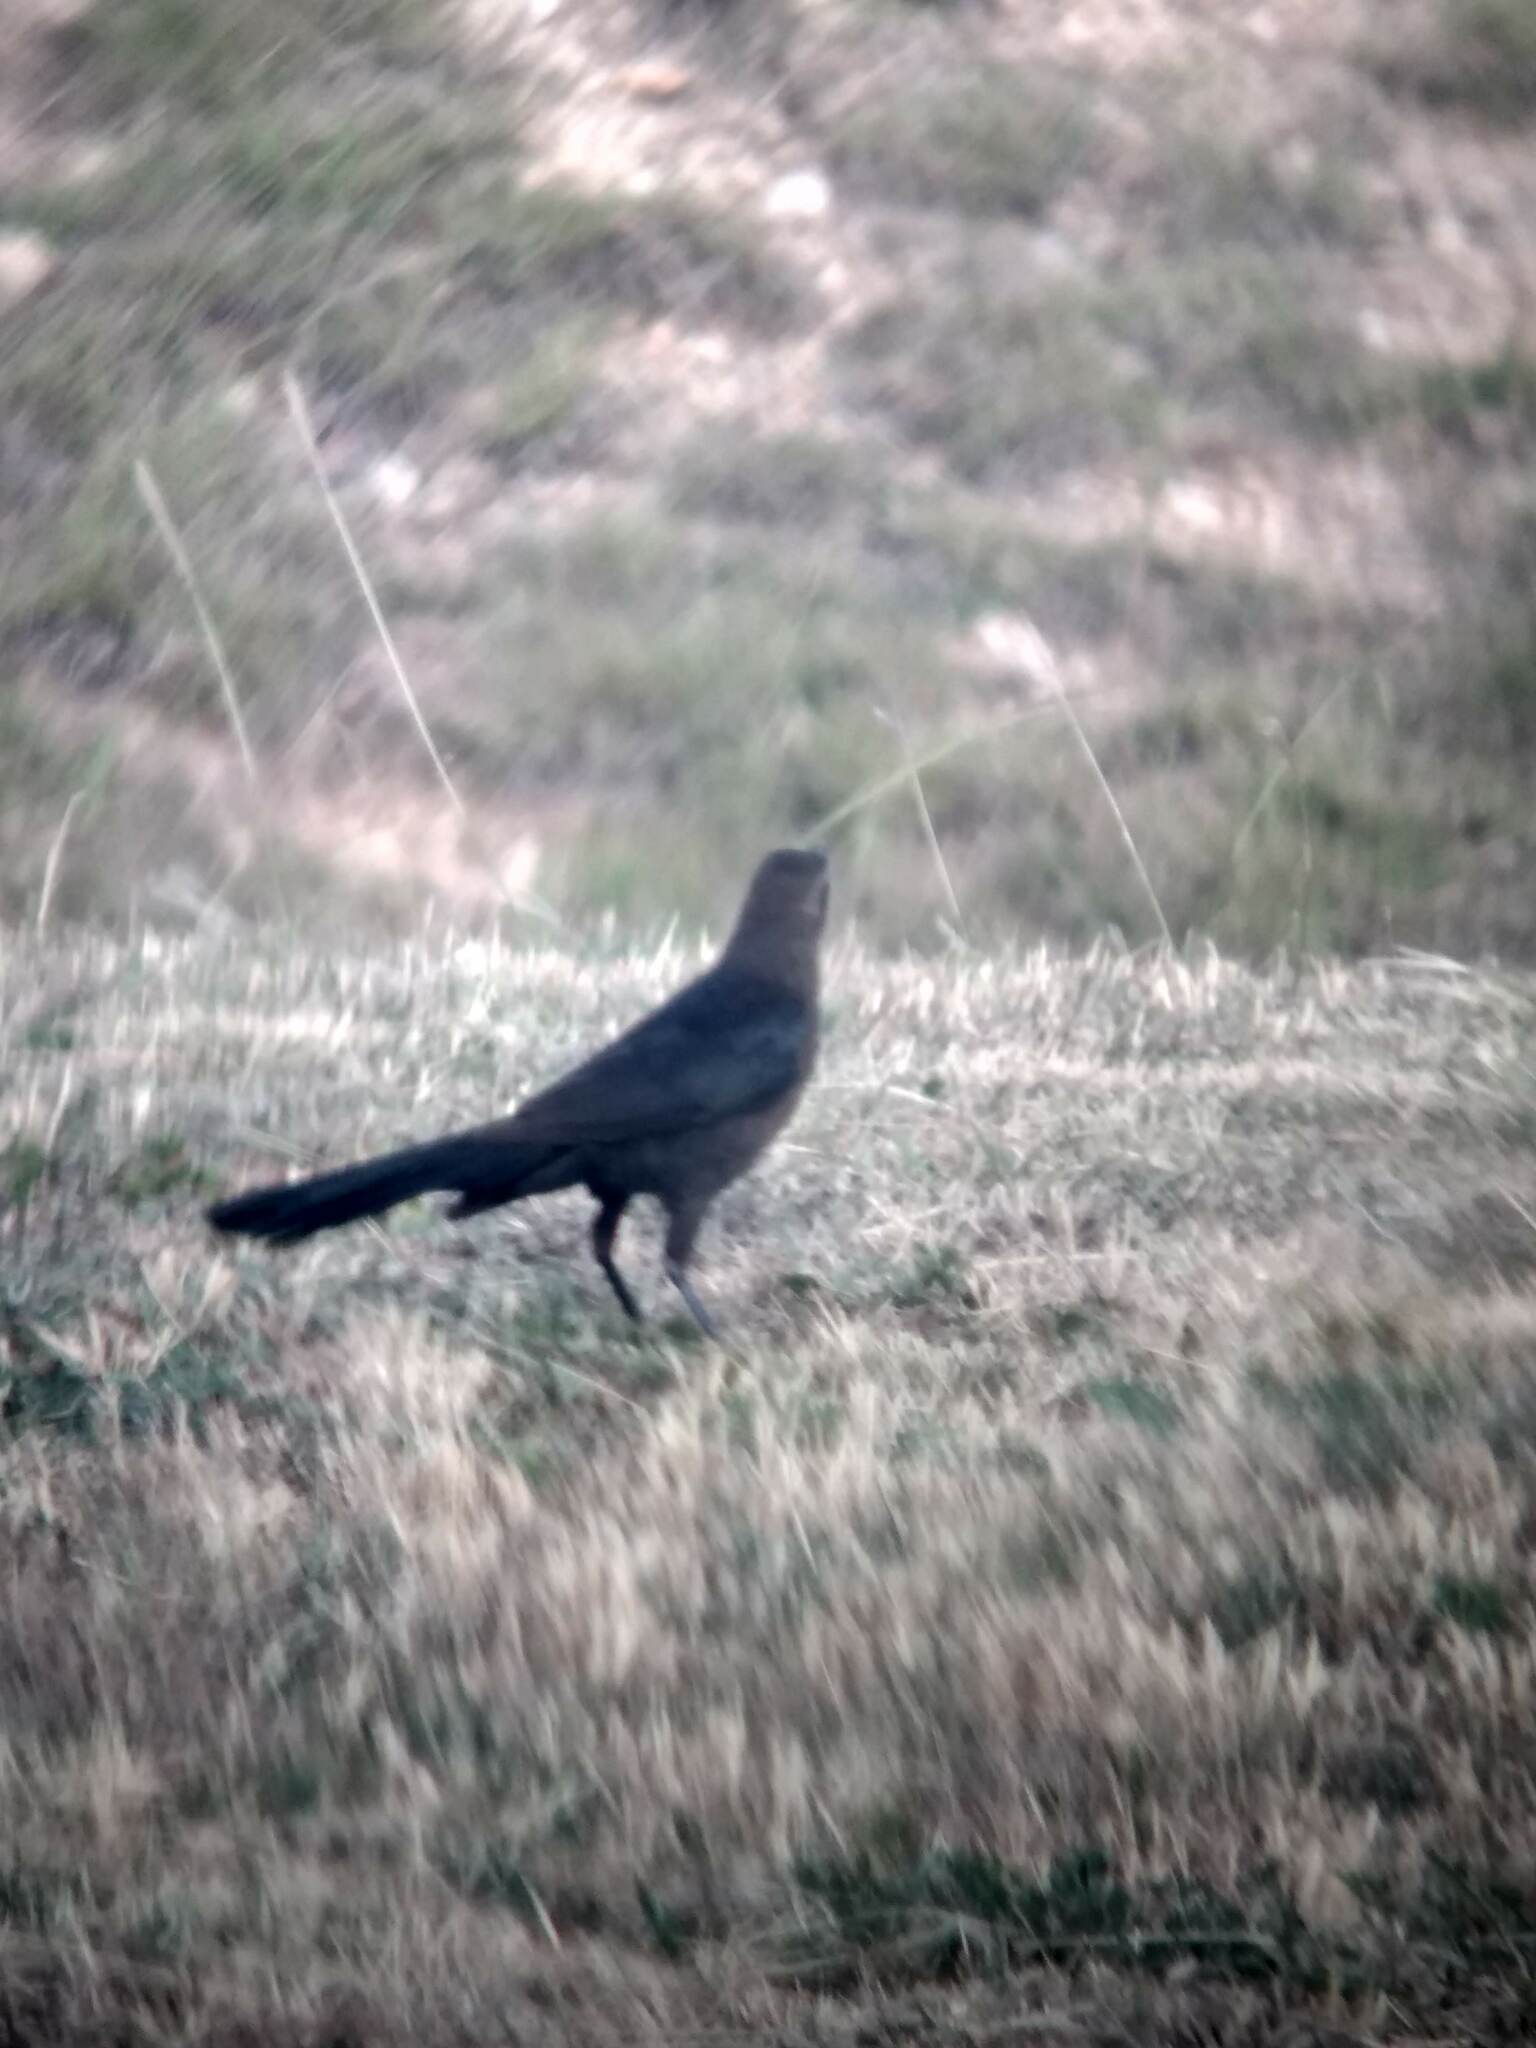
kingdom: Animalia
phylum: Chordata
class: Aves
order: Passeriformes
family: Icteridae
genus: Quiscalus
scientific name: Quiscalus mexicanus
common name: Great-tailed grackle
